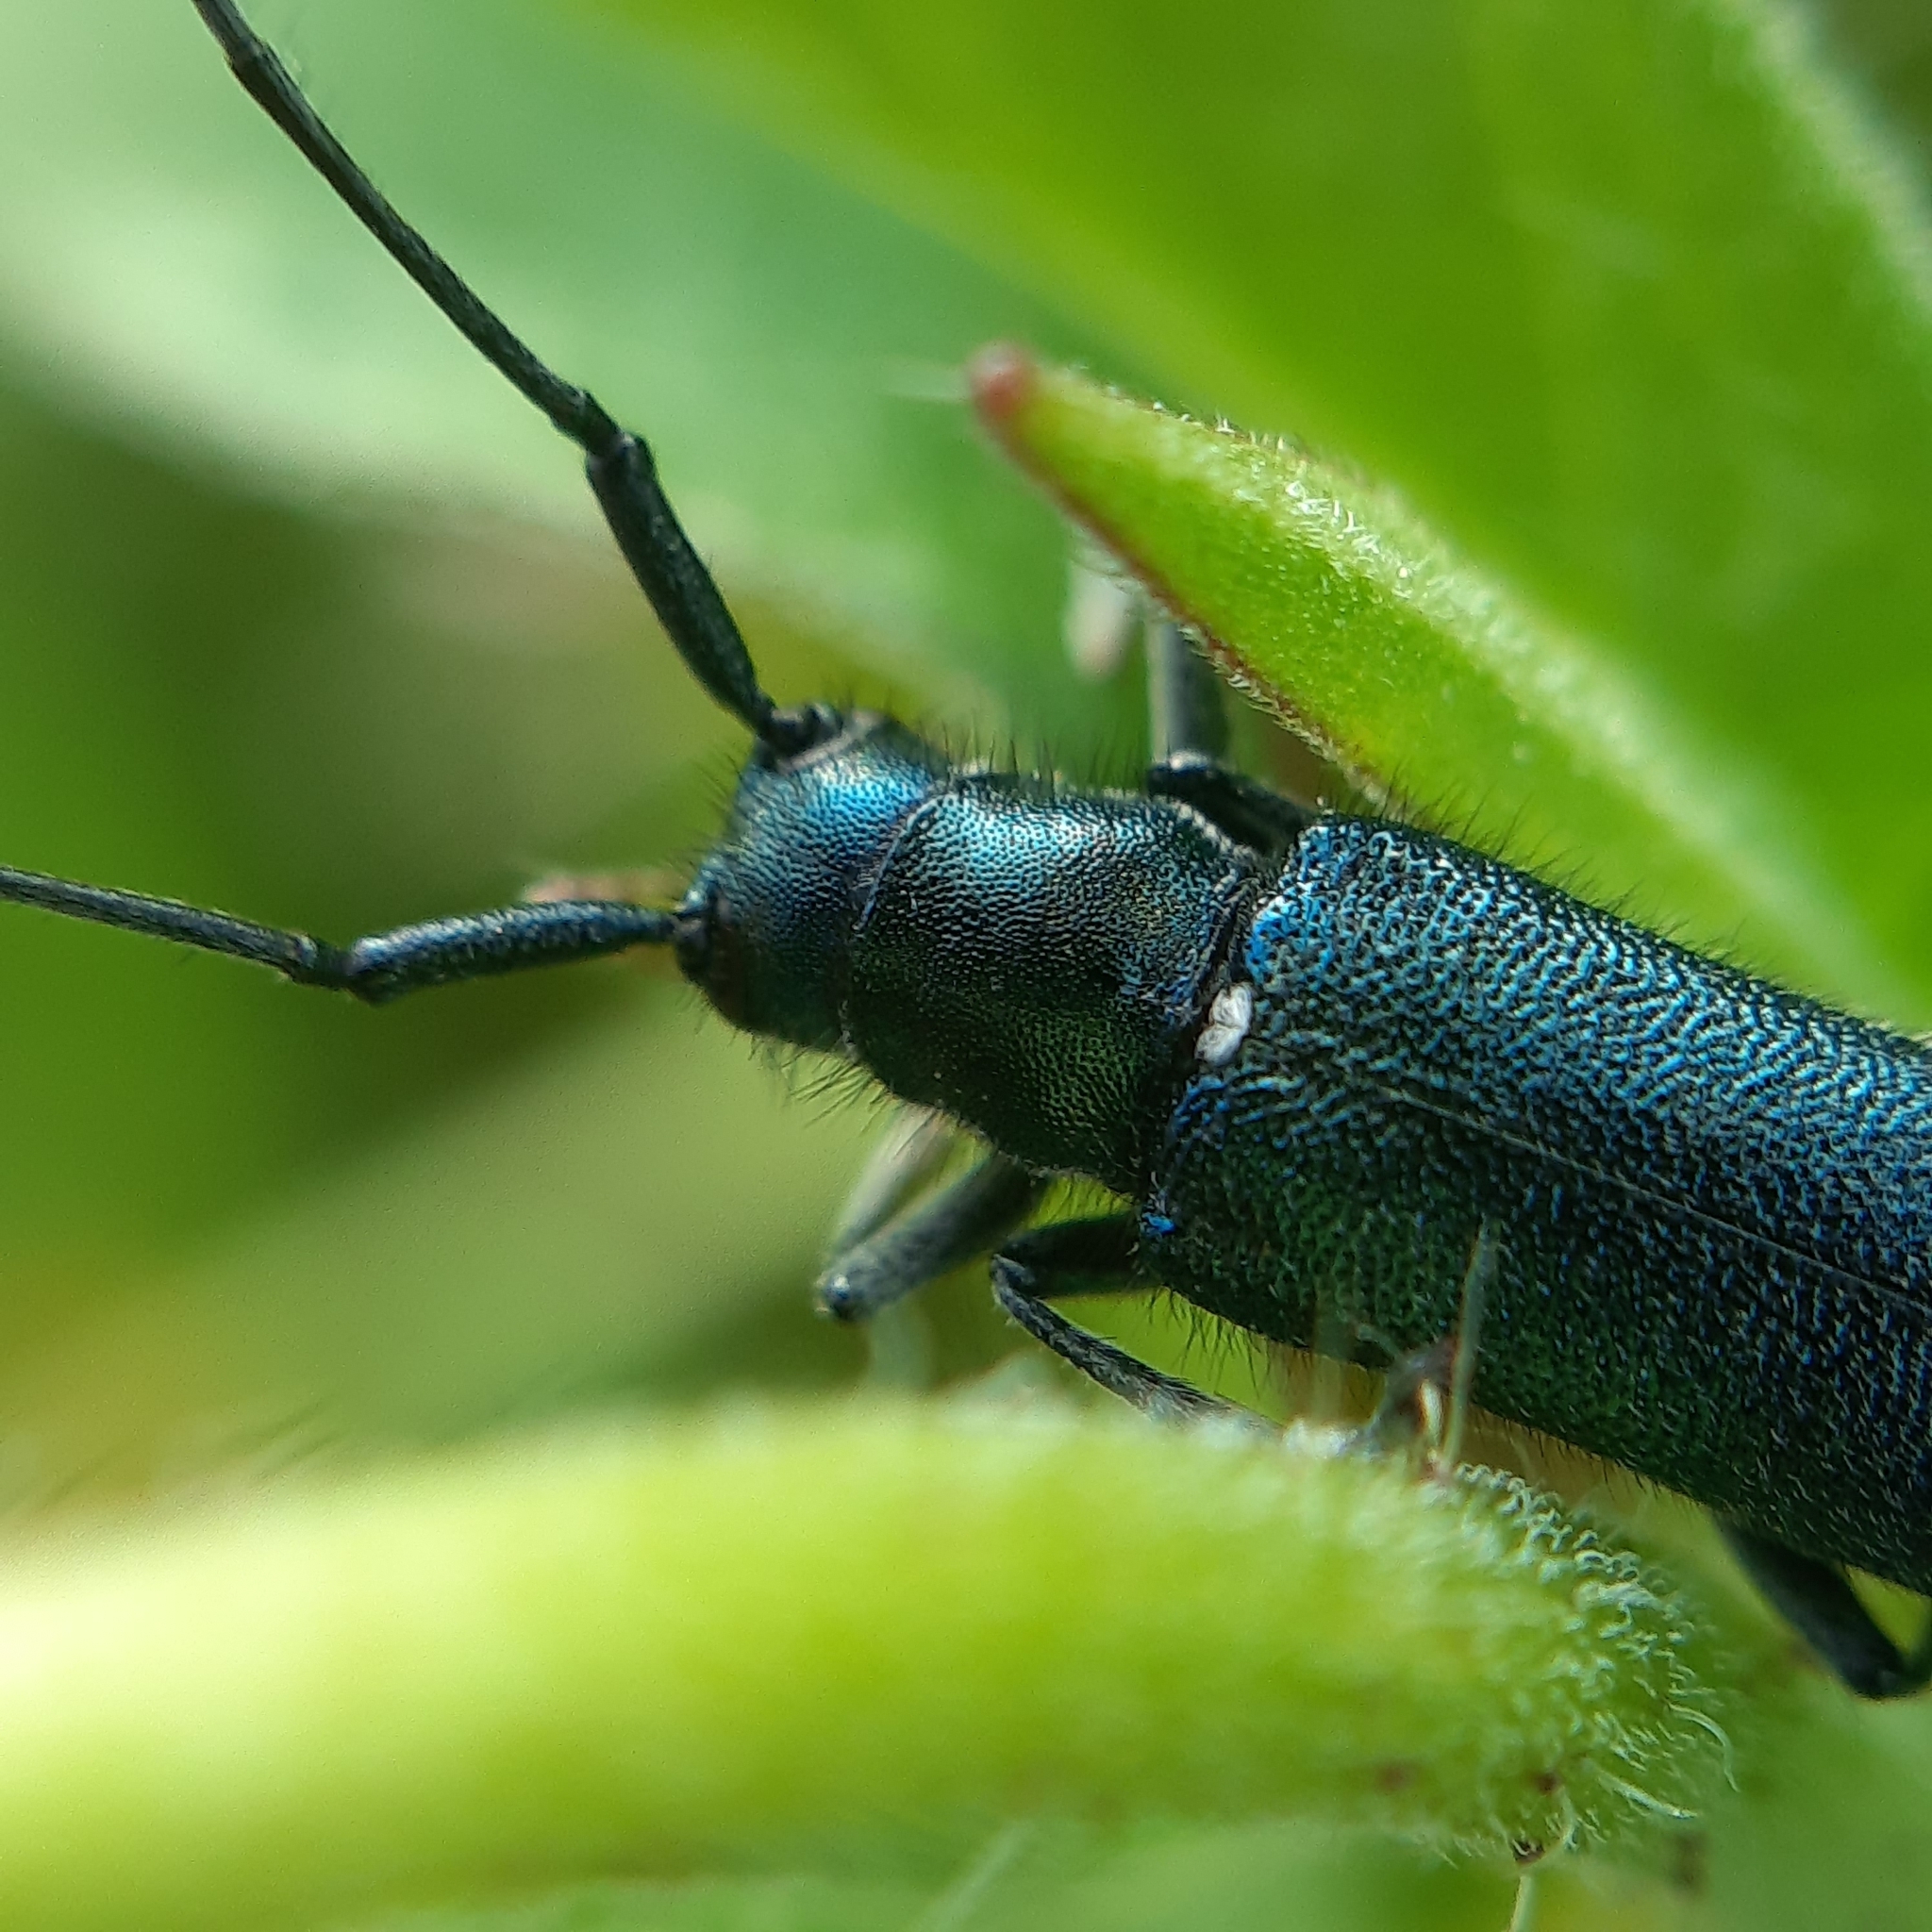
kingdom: Animalia
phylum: Arthropoda
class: Insecta
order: Coleoptera
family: Cerambycidae
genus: Smaragdula
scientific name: Smaragdula
